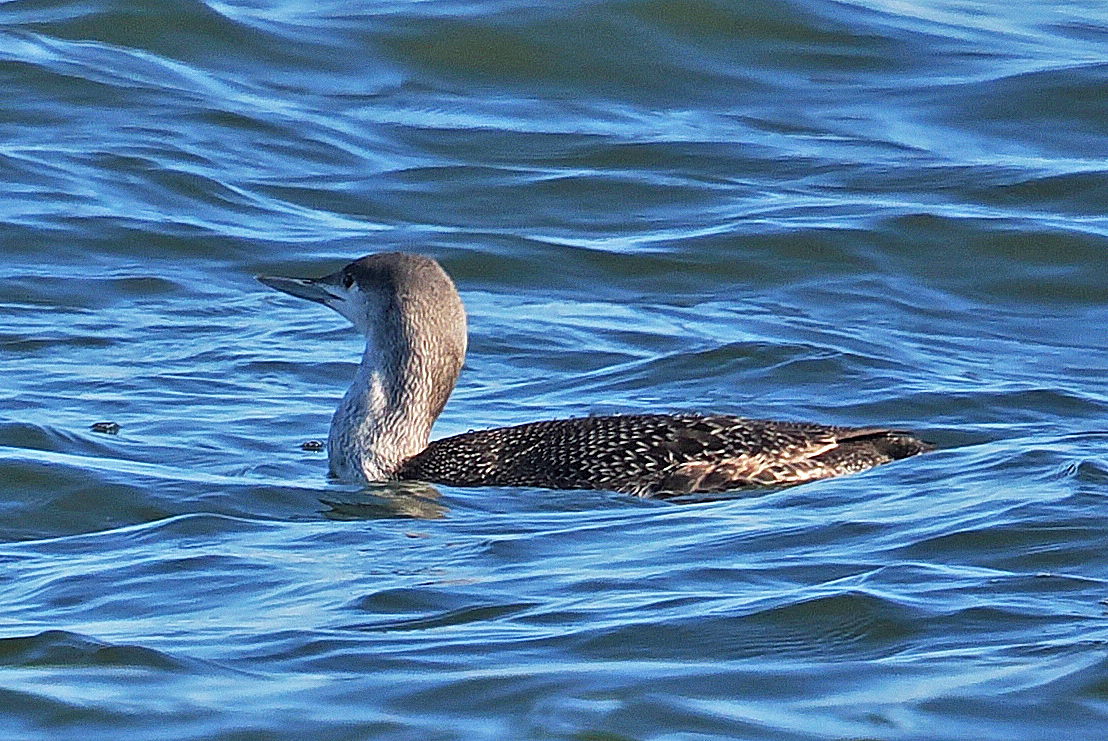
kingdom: Animalia
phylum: Chordata
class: Aves
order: Gaviiformes
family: Gaviidae
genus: Gavia
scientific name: Gavia stellata
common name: Red-throated loon
